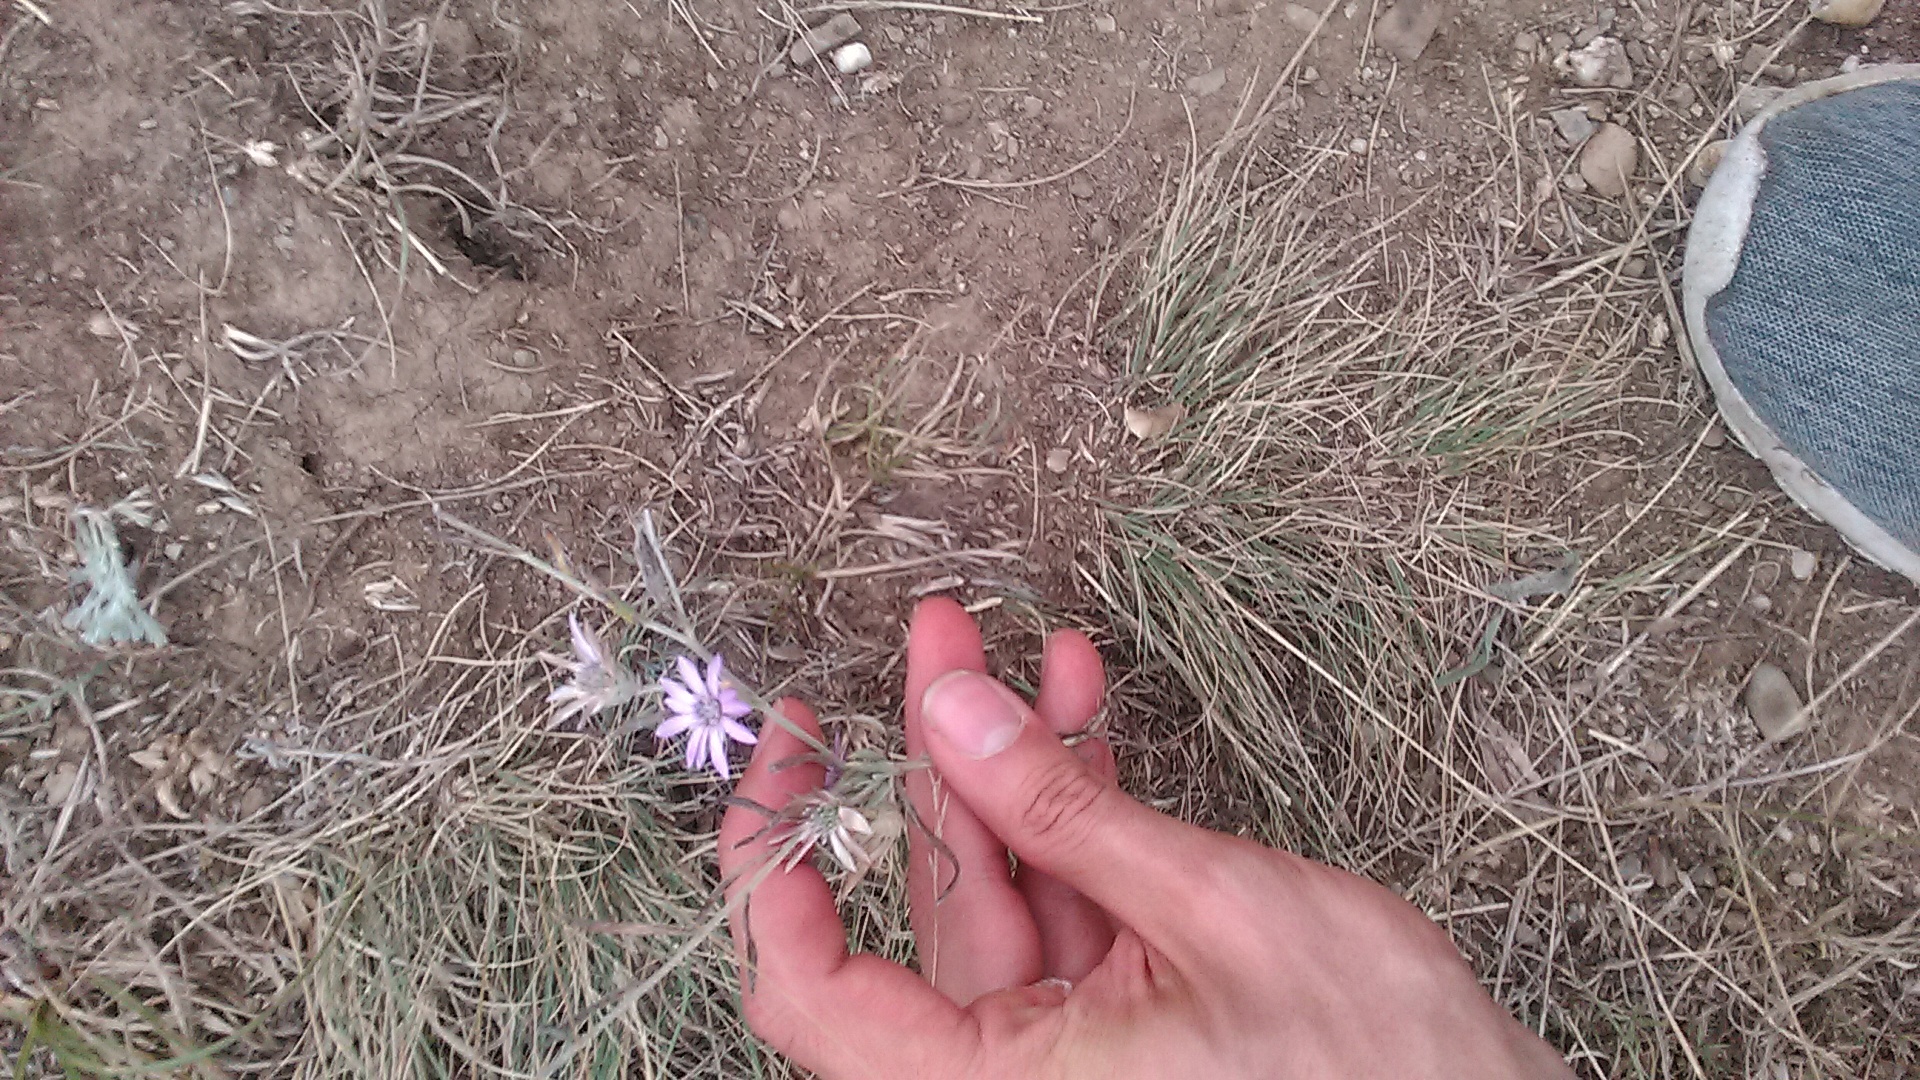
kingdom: Plantae
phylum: Tracheophyta
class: Magnoliopsida
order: Asterales
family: Asteraceae
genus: Xeranthemum
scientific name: Xeranthemum annuum
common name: Immortelle
